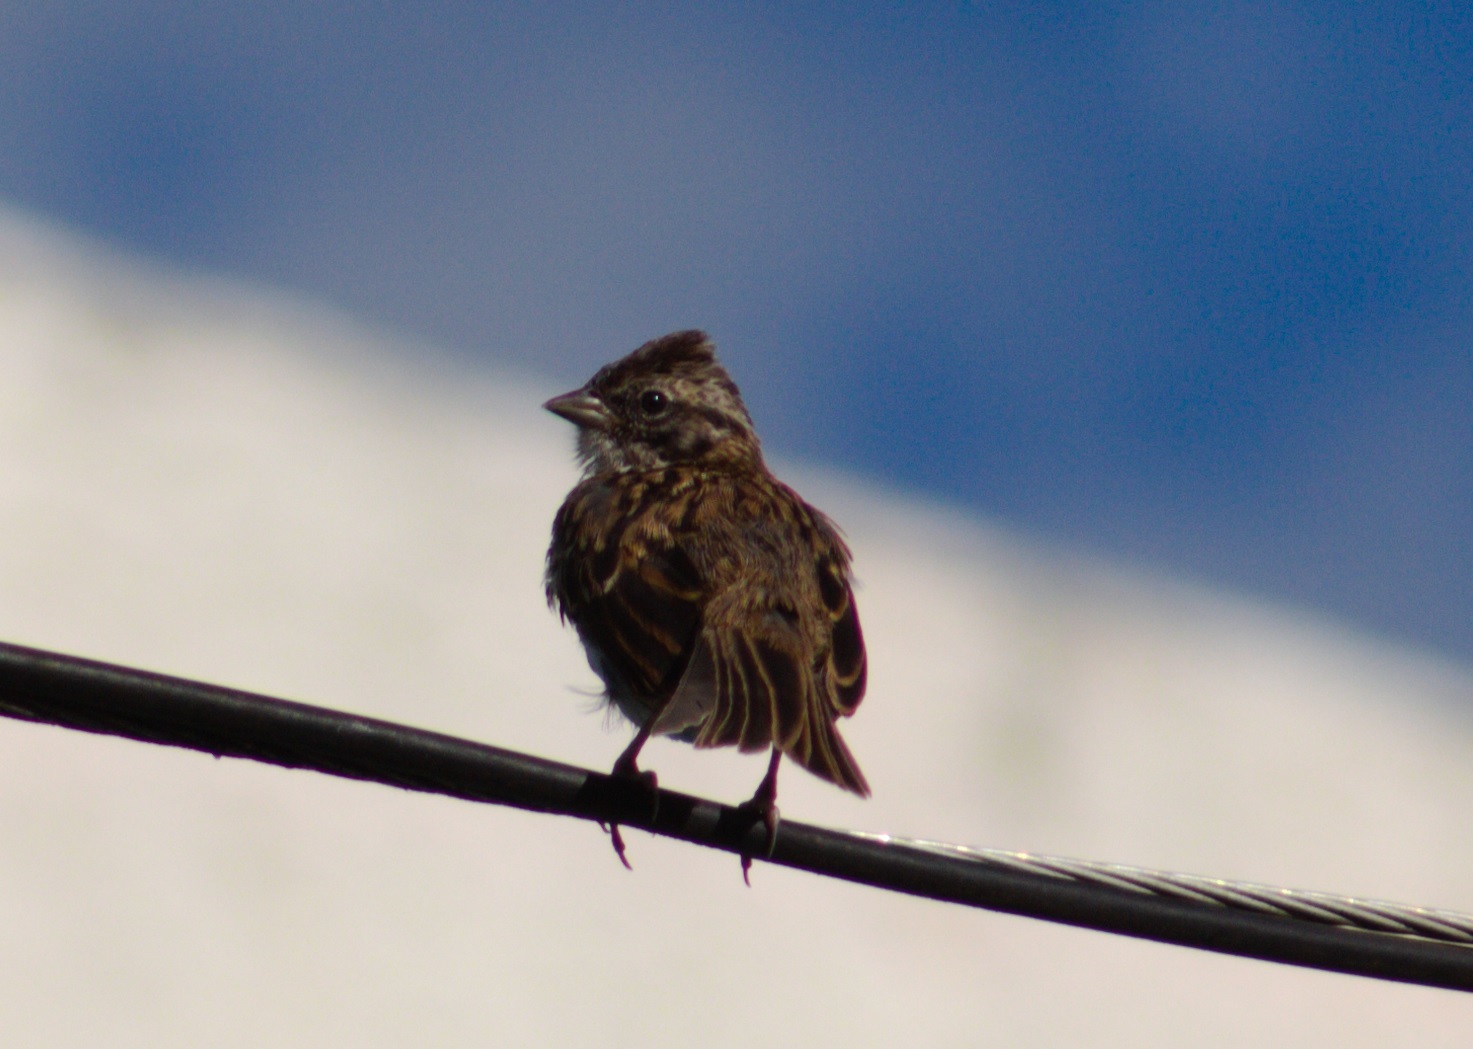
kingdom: Animalia
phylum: Chordata
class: Aves
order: Passeriformes
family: Passerellidae
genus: Zonotrichia
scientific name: Zonotrichia capensis
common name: Rufous-collared sparrow
